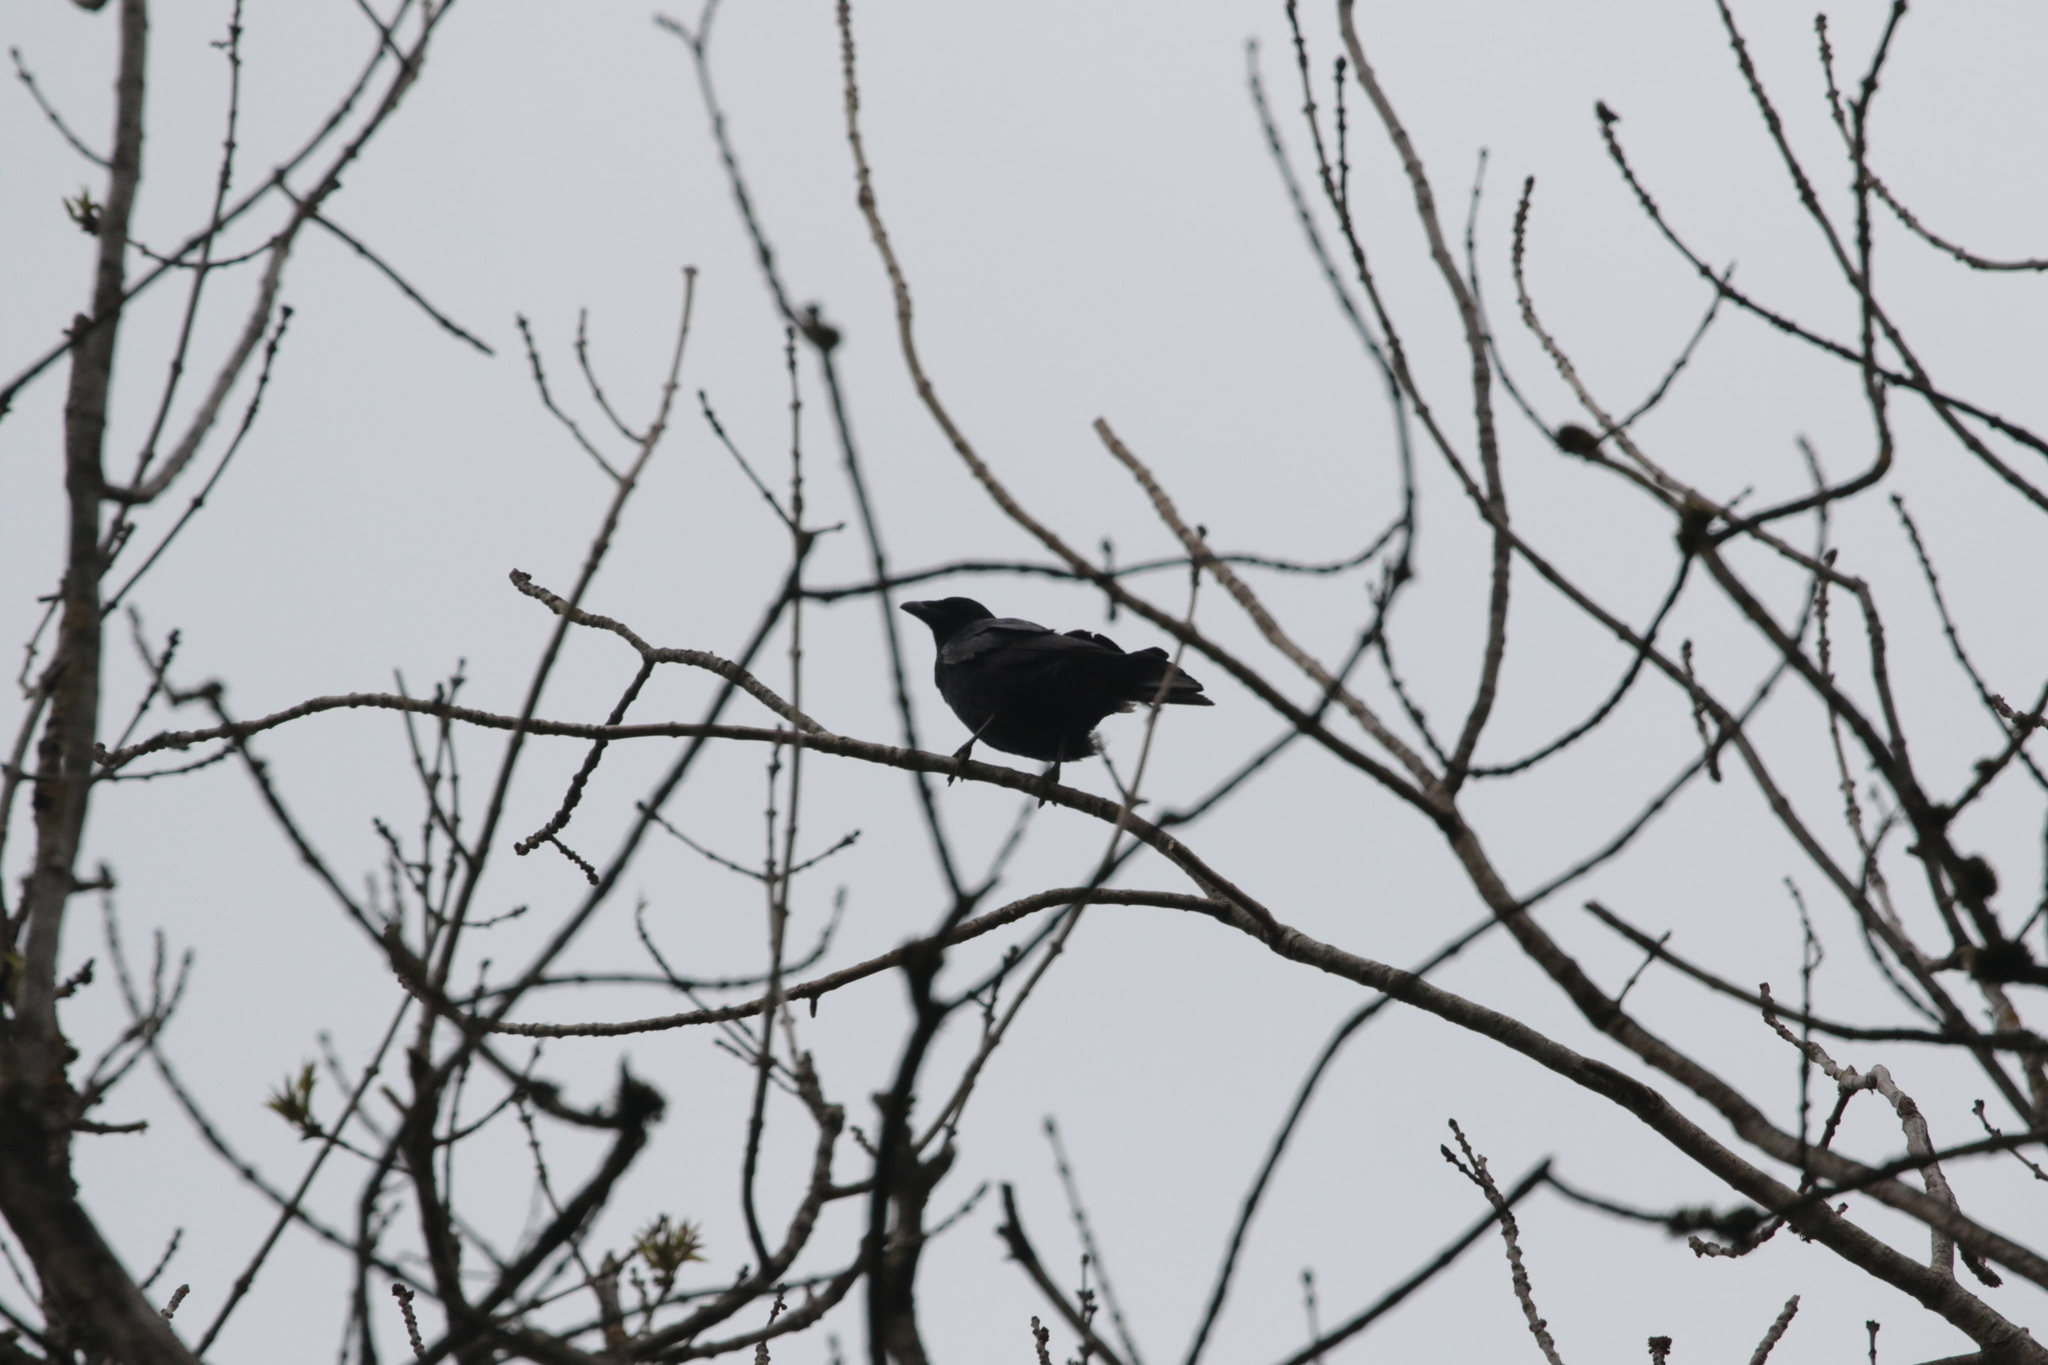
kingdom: Animalia
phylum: Chordata
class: Aves
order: Passeriformes
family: Corvidae
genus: Corvus
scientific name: Corvus corone
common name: Carrion crow
